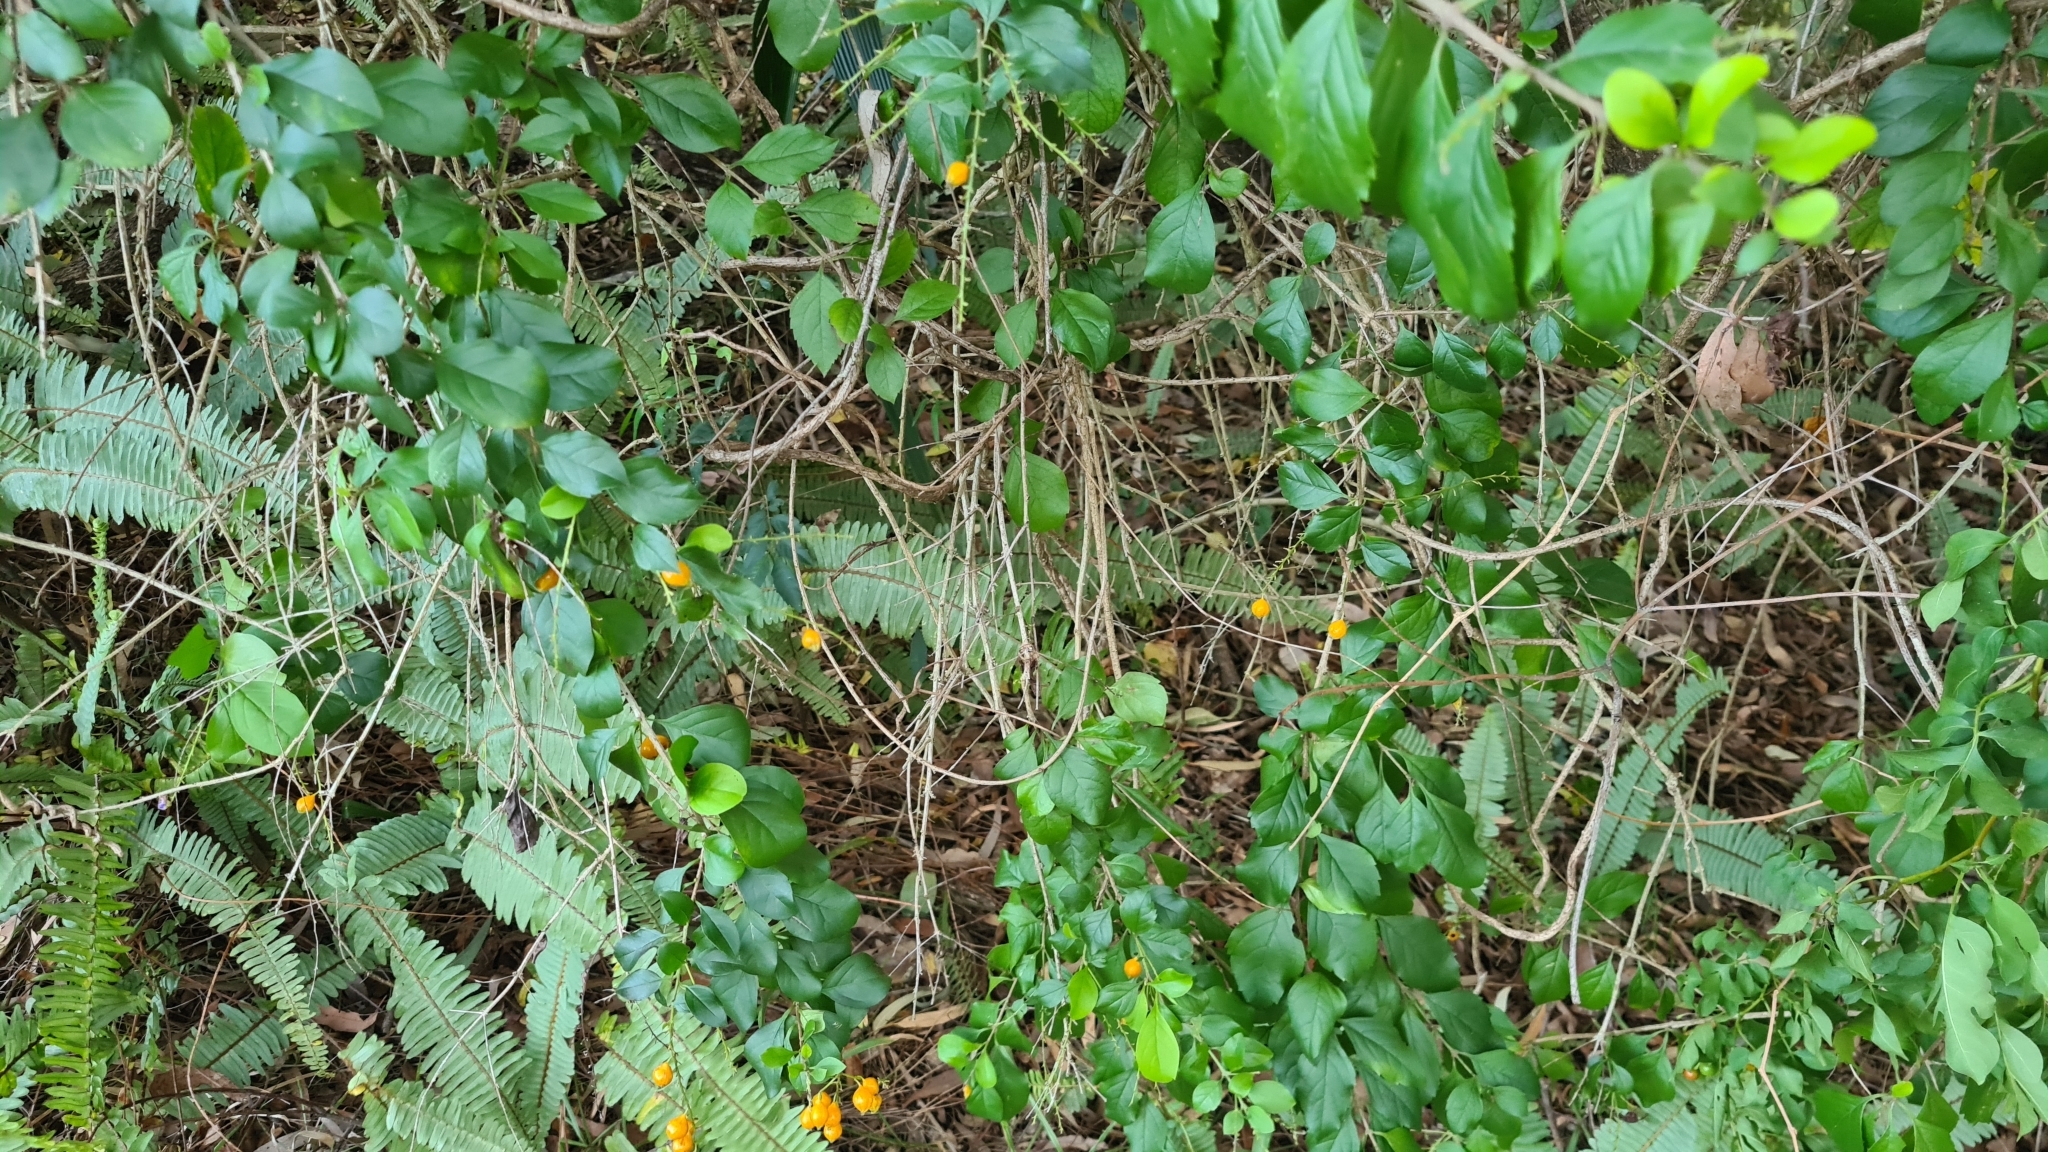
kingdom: Plantae
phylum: Tracheophyta
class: Magnoliopsida
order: Lamiales
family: Verbenaceae
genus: Duranta
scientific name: Duranta erecta
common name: Golden dewdrops
